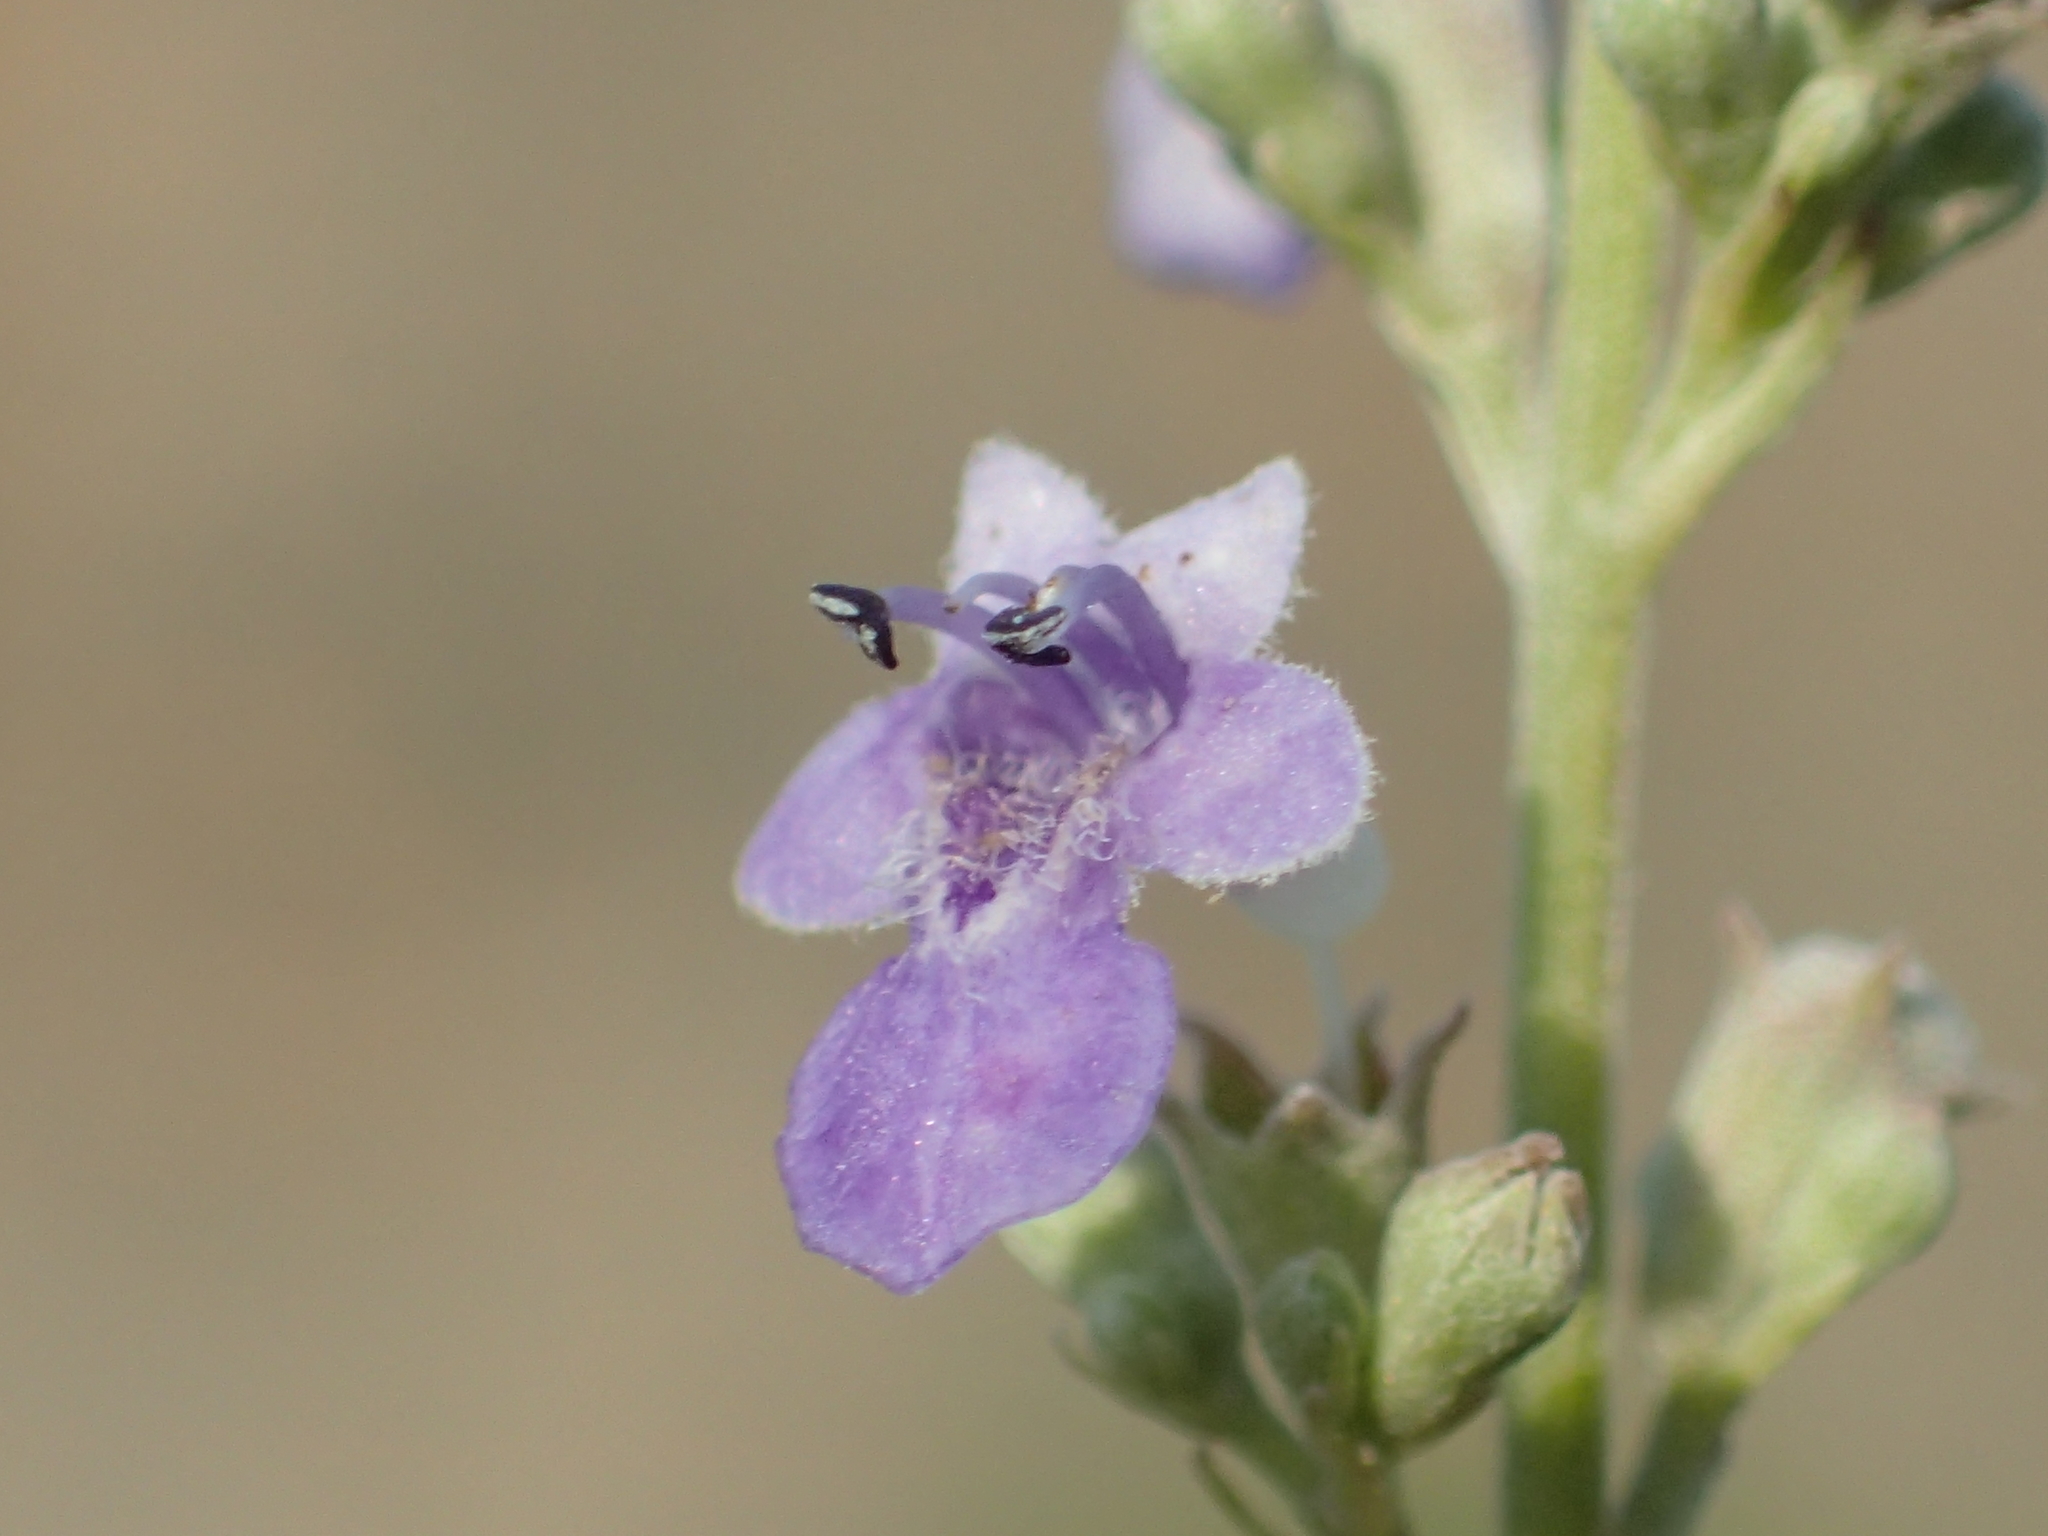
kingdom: Plantae
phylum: Tracheophyta
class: Magnoliopsida
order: Lamiales
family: Lamiaceae
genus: Vitex
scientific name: Vitex negundo
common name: Chinese chastetree
